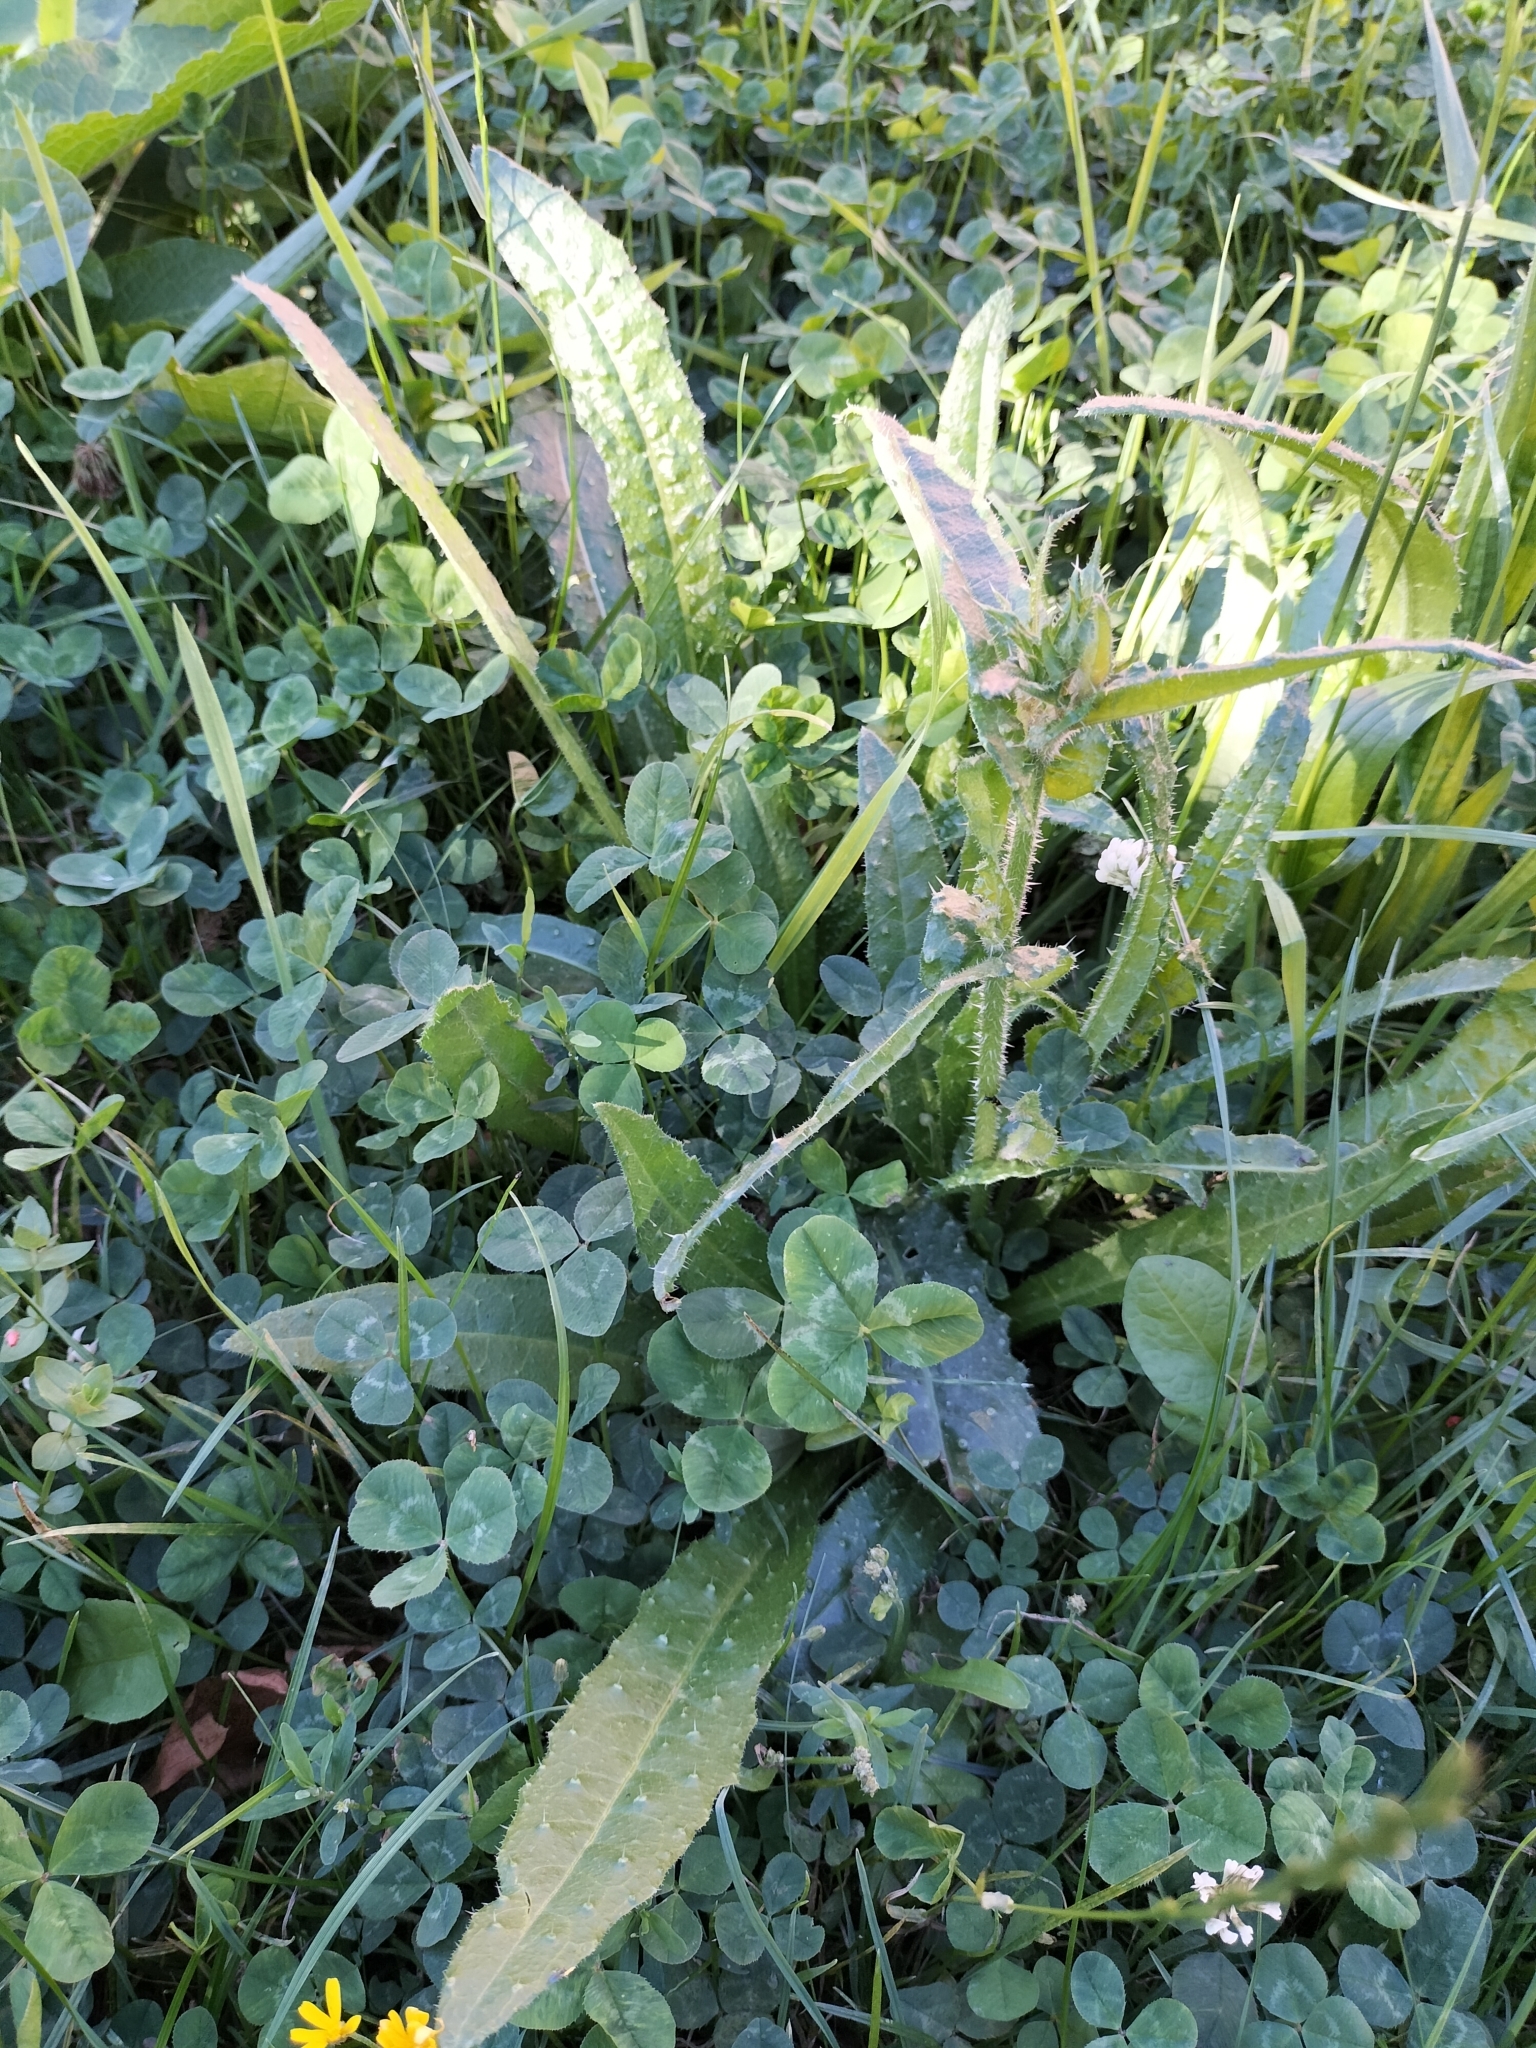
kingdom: Plantae
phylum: Tracheophyta
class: Magnoliopsida
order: Asterales
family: Asteraceae
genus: Helminthotheca
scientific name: Helminthotheca echioides
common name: Ox-tongue
